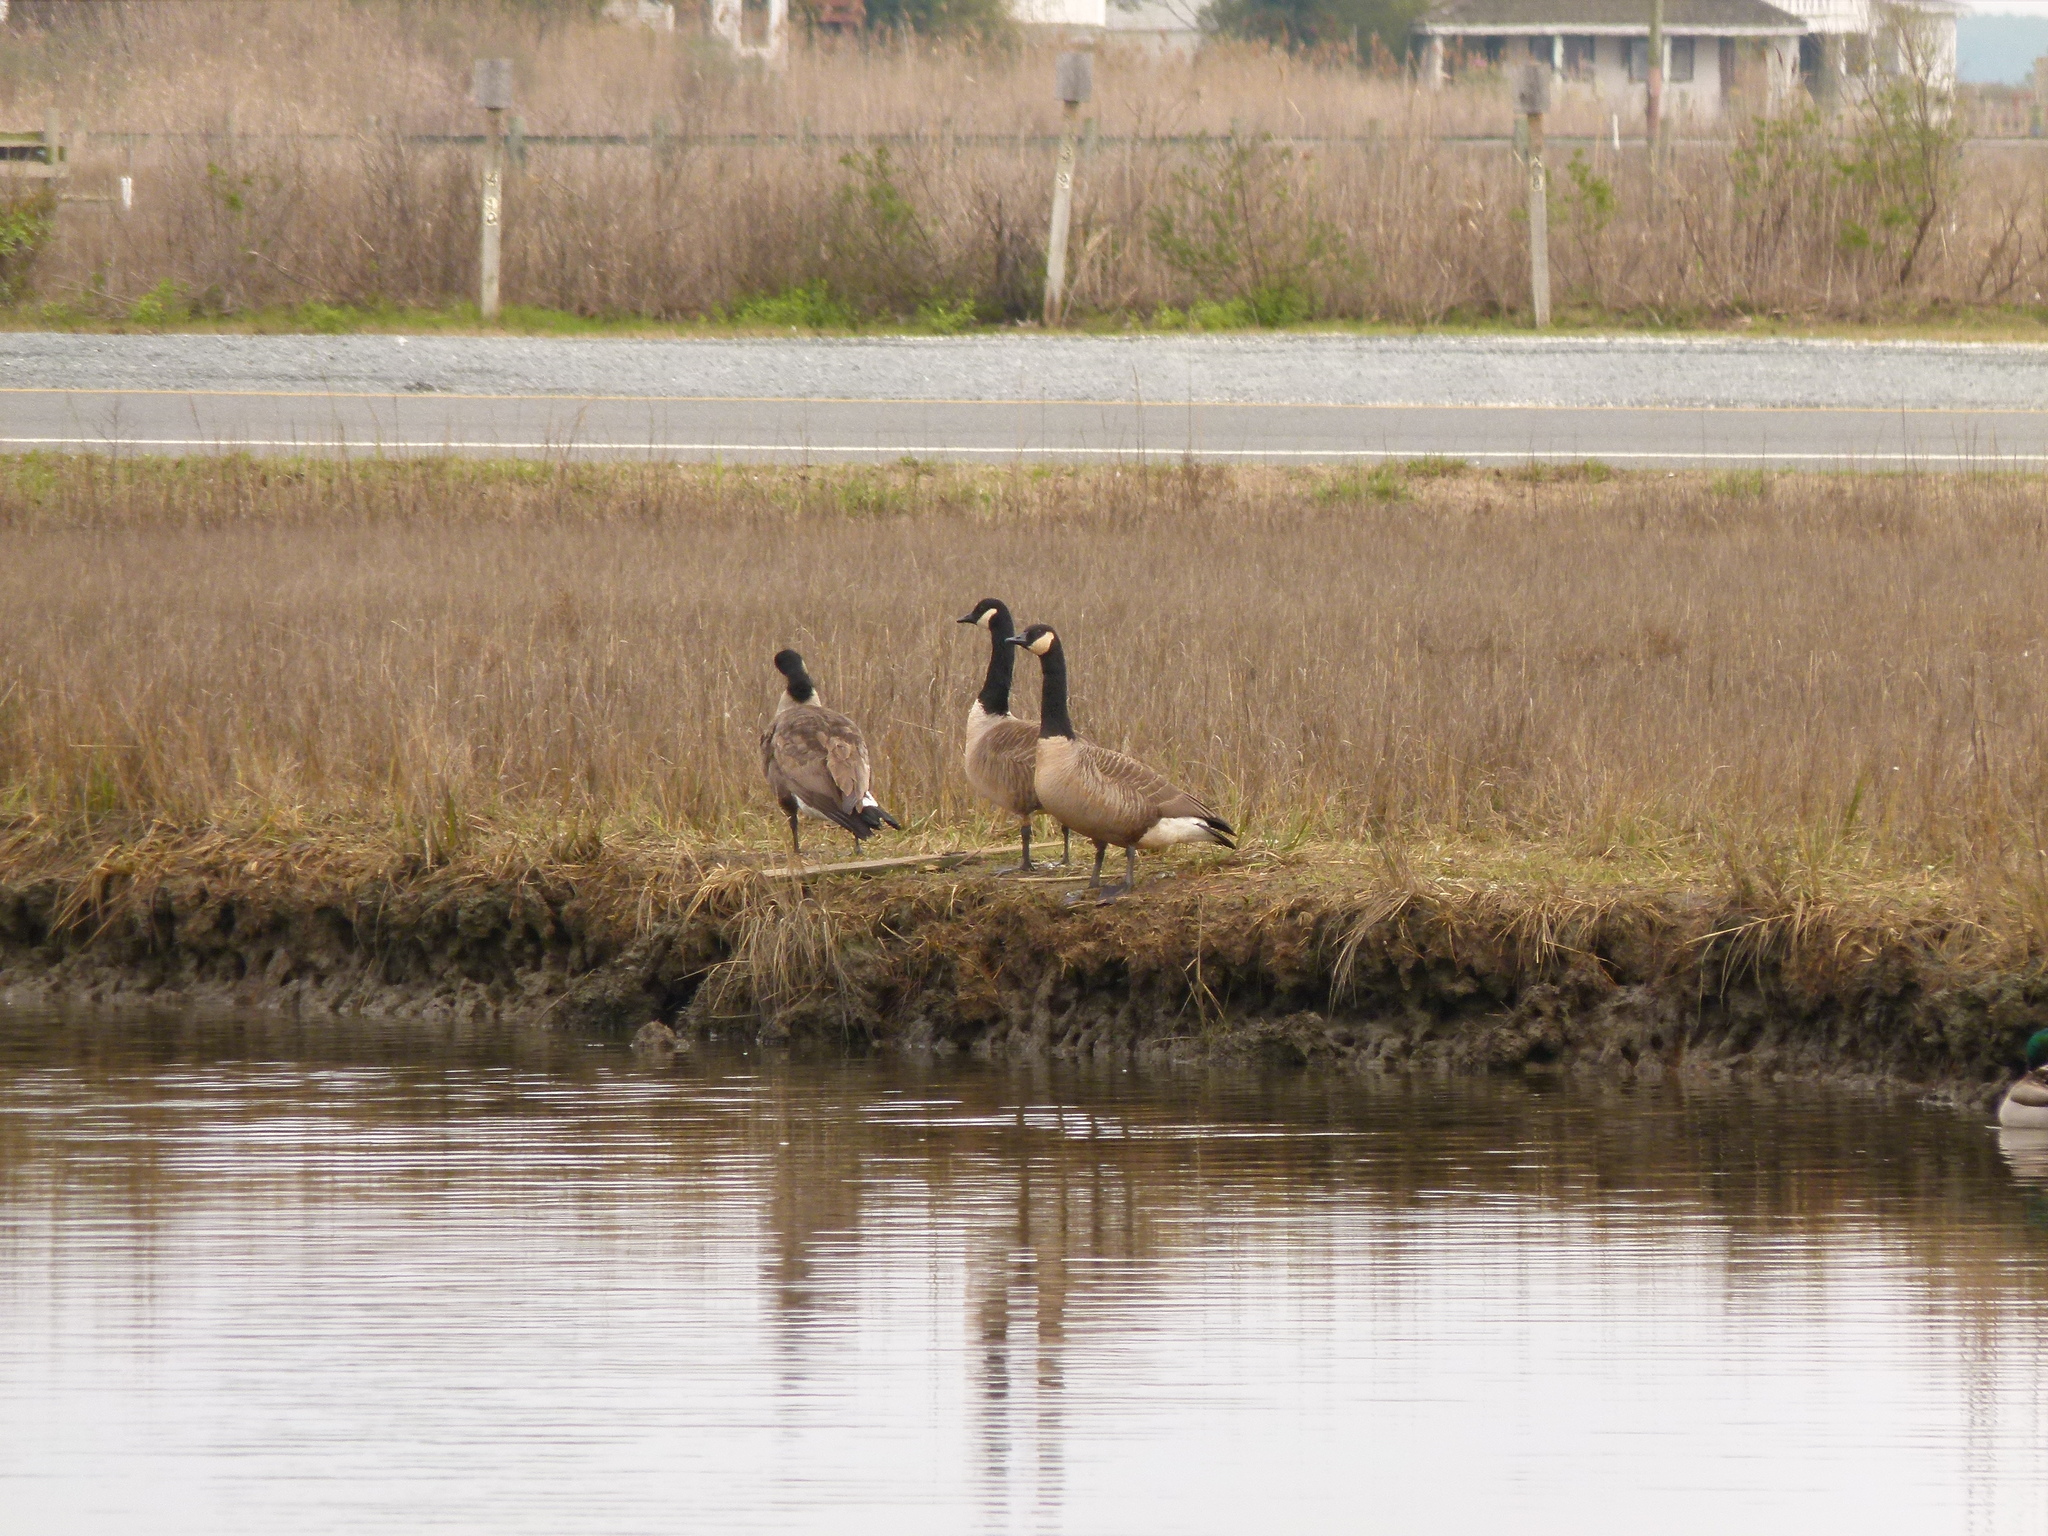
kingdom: Animalia
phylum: Chordata
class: Aves
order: Anseriformes
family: Anatidae
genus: Branta
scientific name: Branta canadensis
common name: Canada goose
